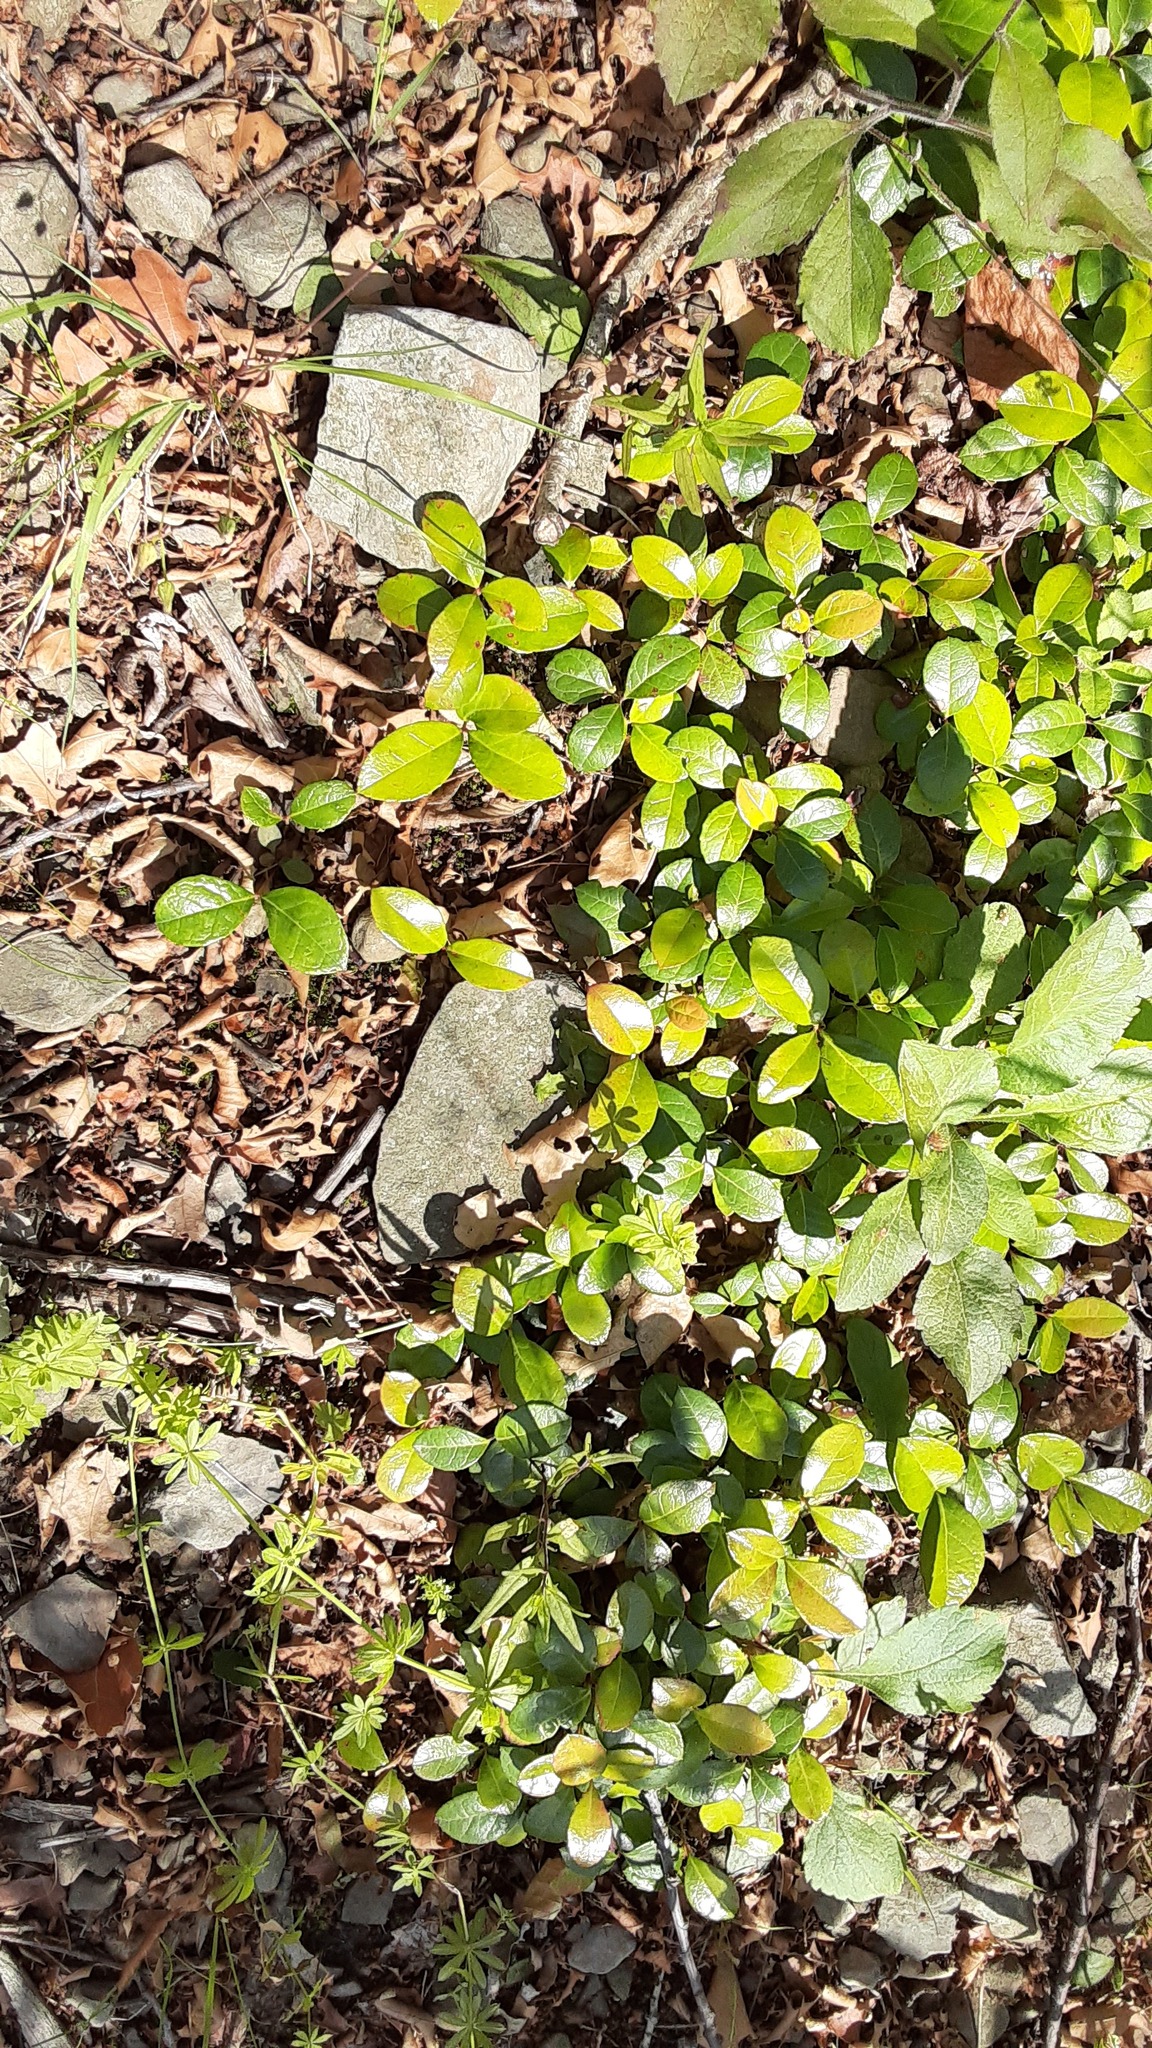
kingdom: Plantae
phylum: Tracheophyta
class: Magnoliopsida
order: Ericales
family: Ericaceae
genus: Gaultheria
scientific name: Gaultheria procumbens
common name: Checkerberry
